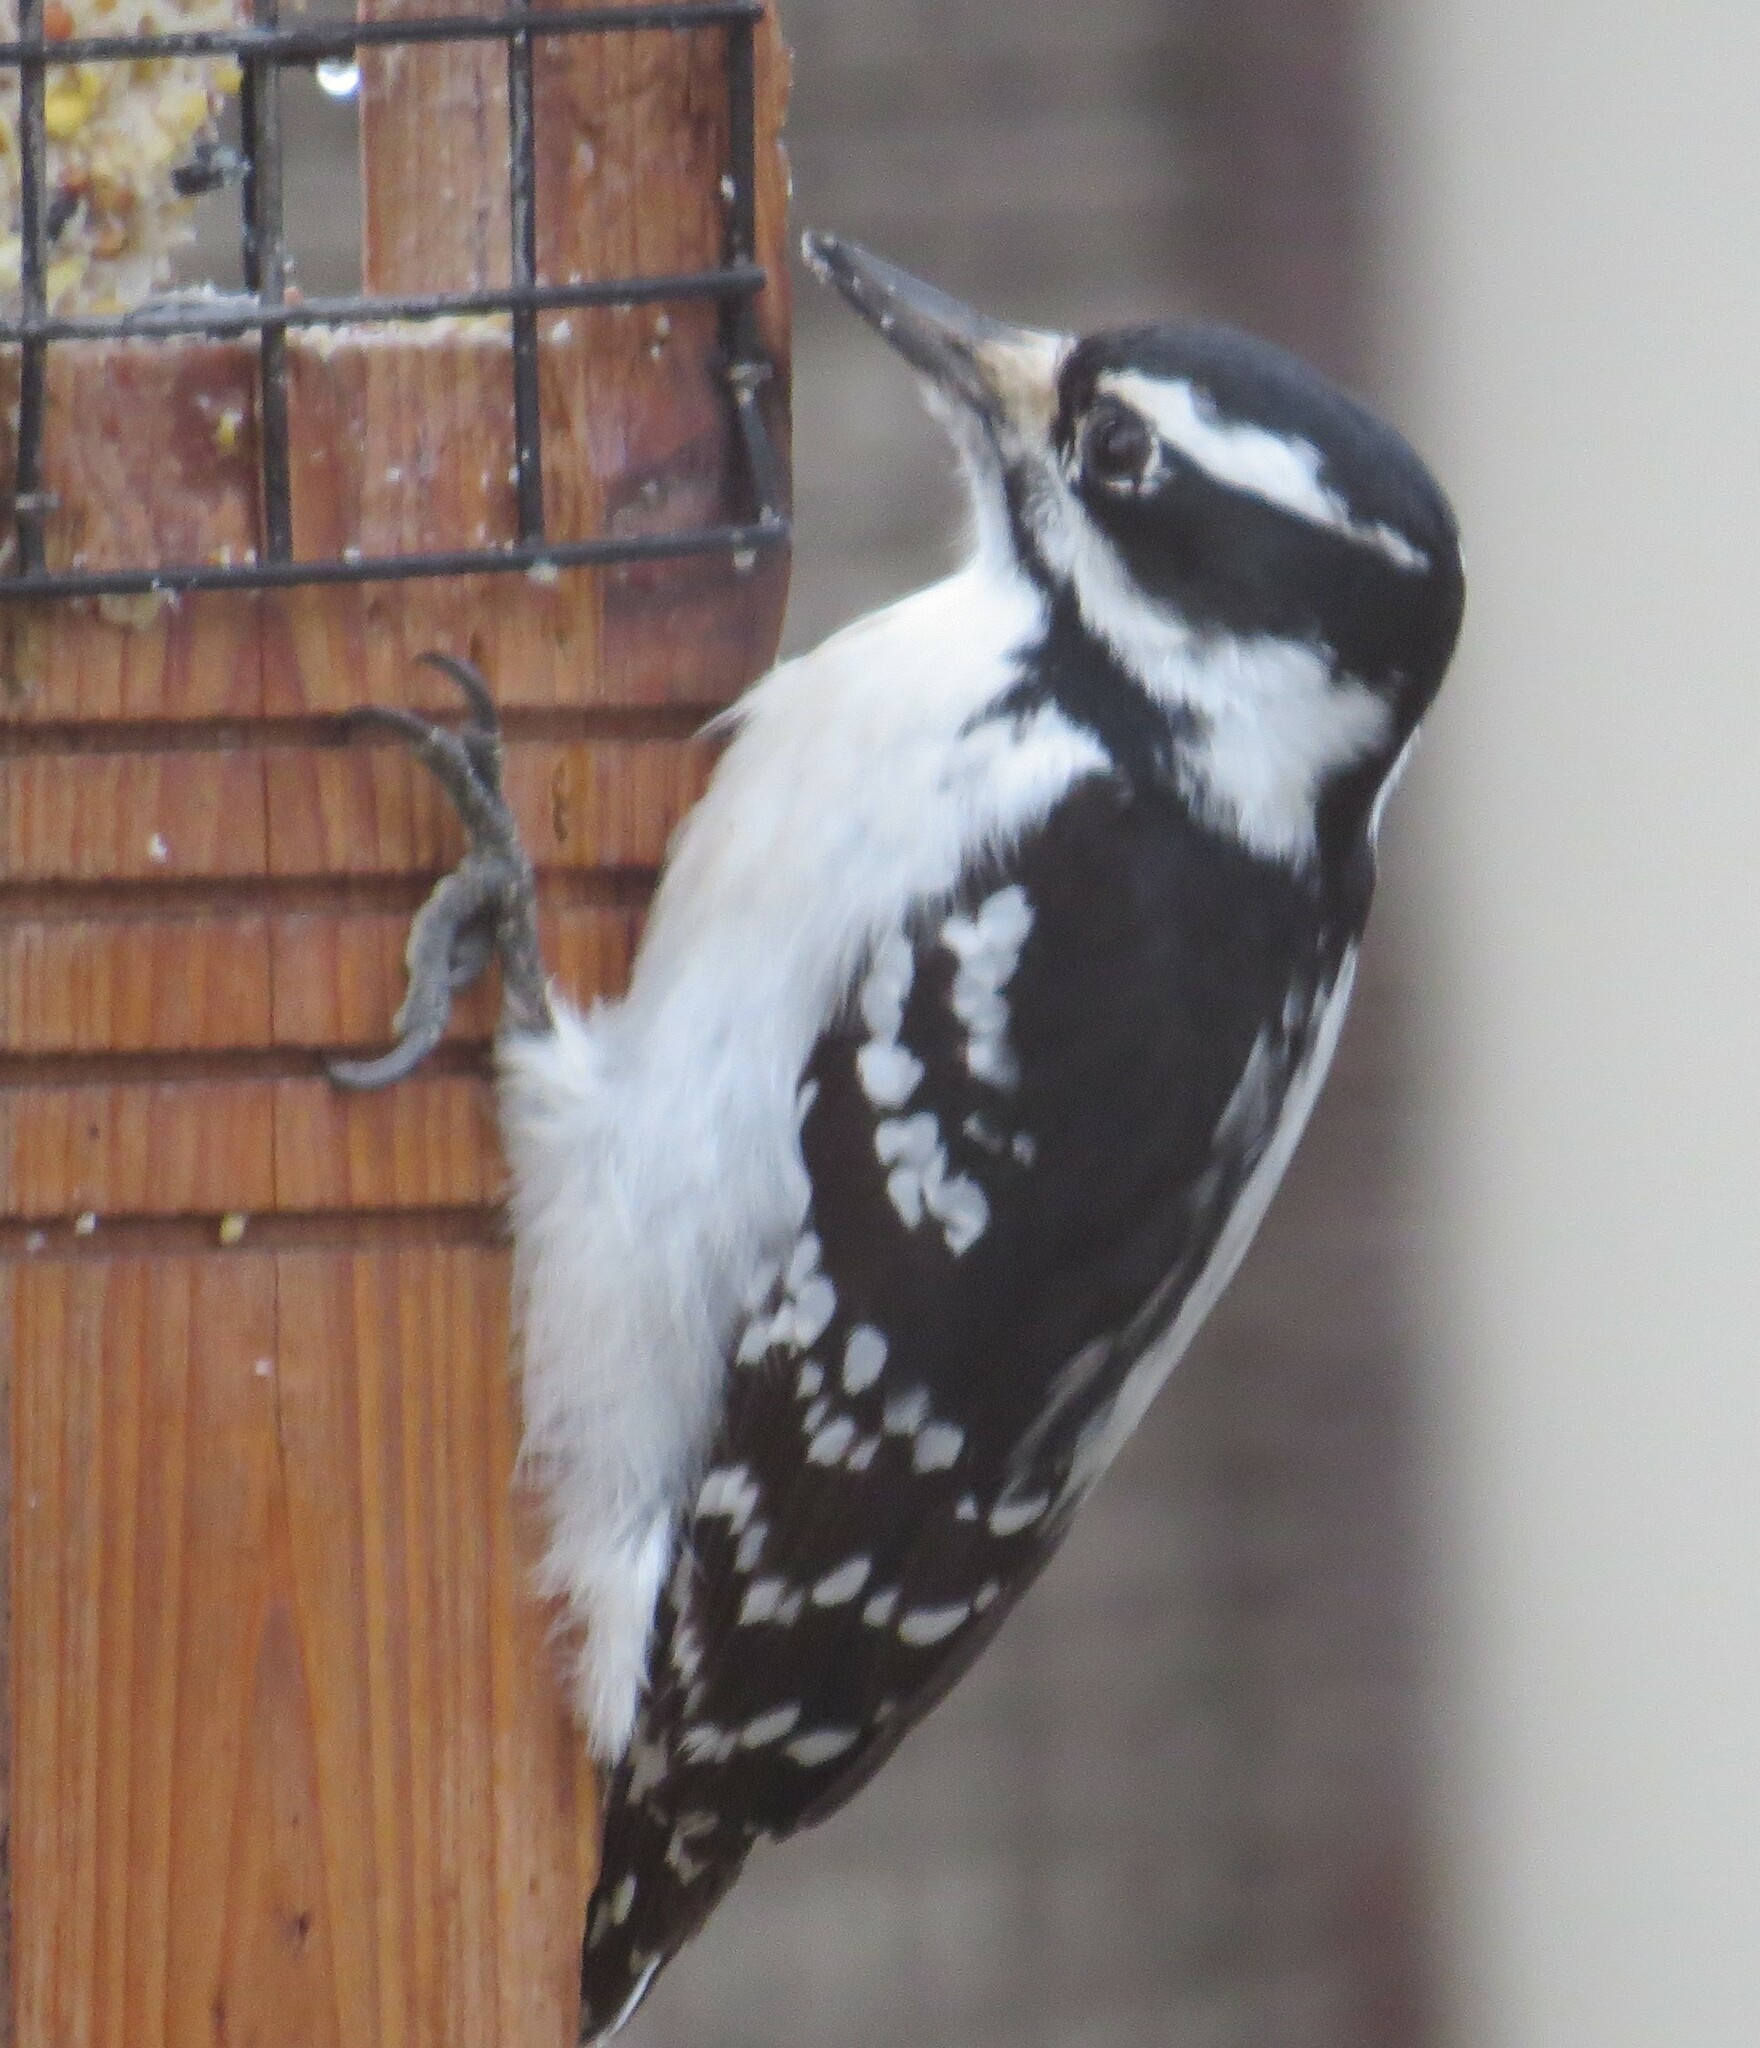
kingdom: Animalia
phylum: Chordata
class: Aves
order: Piciformes
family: Picidae
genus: Leuconotopicus
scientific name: Leuconotopicus villosus
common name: Hairy woodpecker
